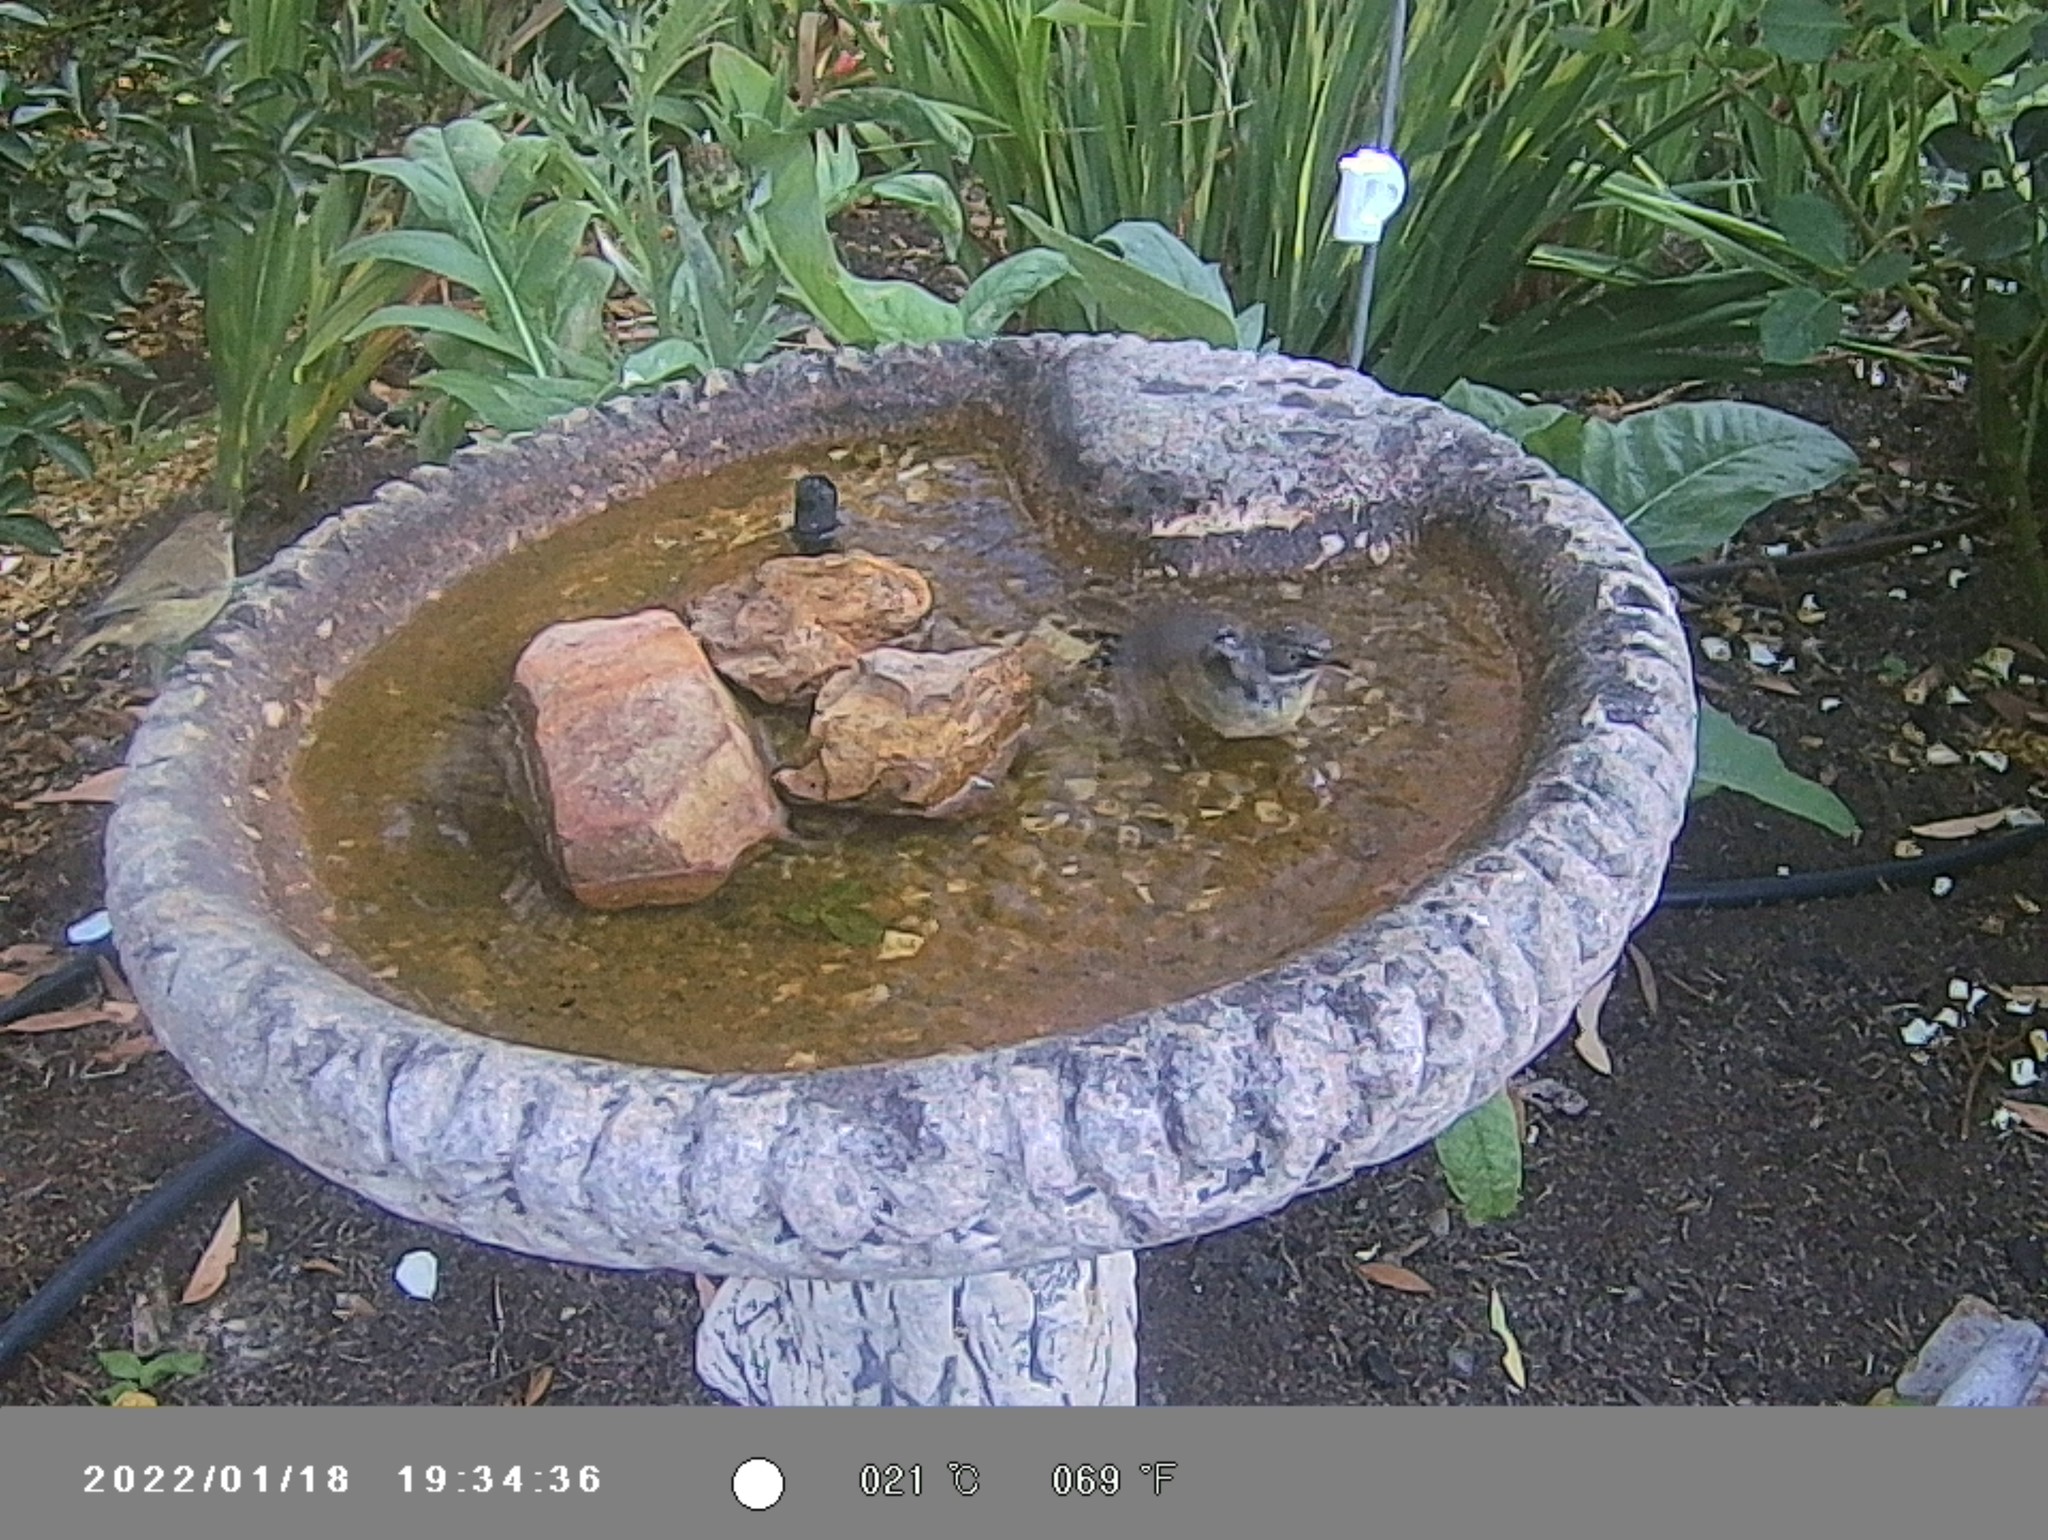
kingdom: Animalia
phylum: Chordata
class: Aves
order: Passeriformes
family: Acanthizidae
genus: Sericornis
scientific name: Sericornis frontalis
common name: White-browed scrubwren
